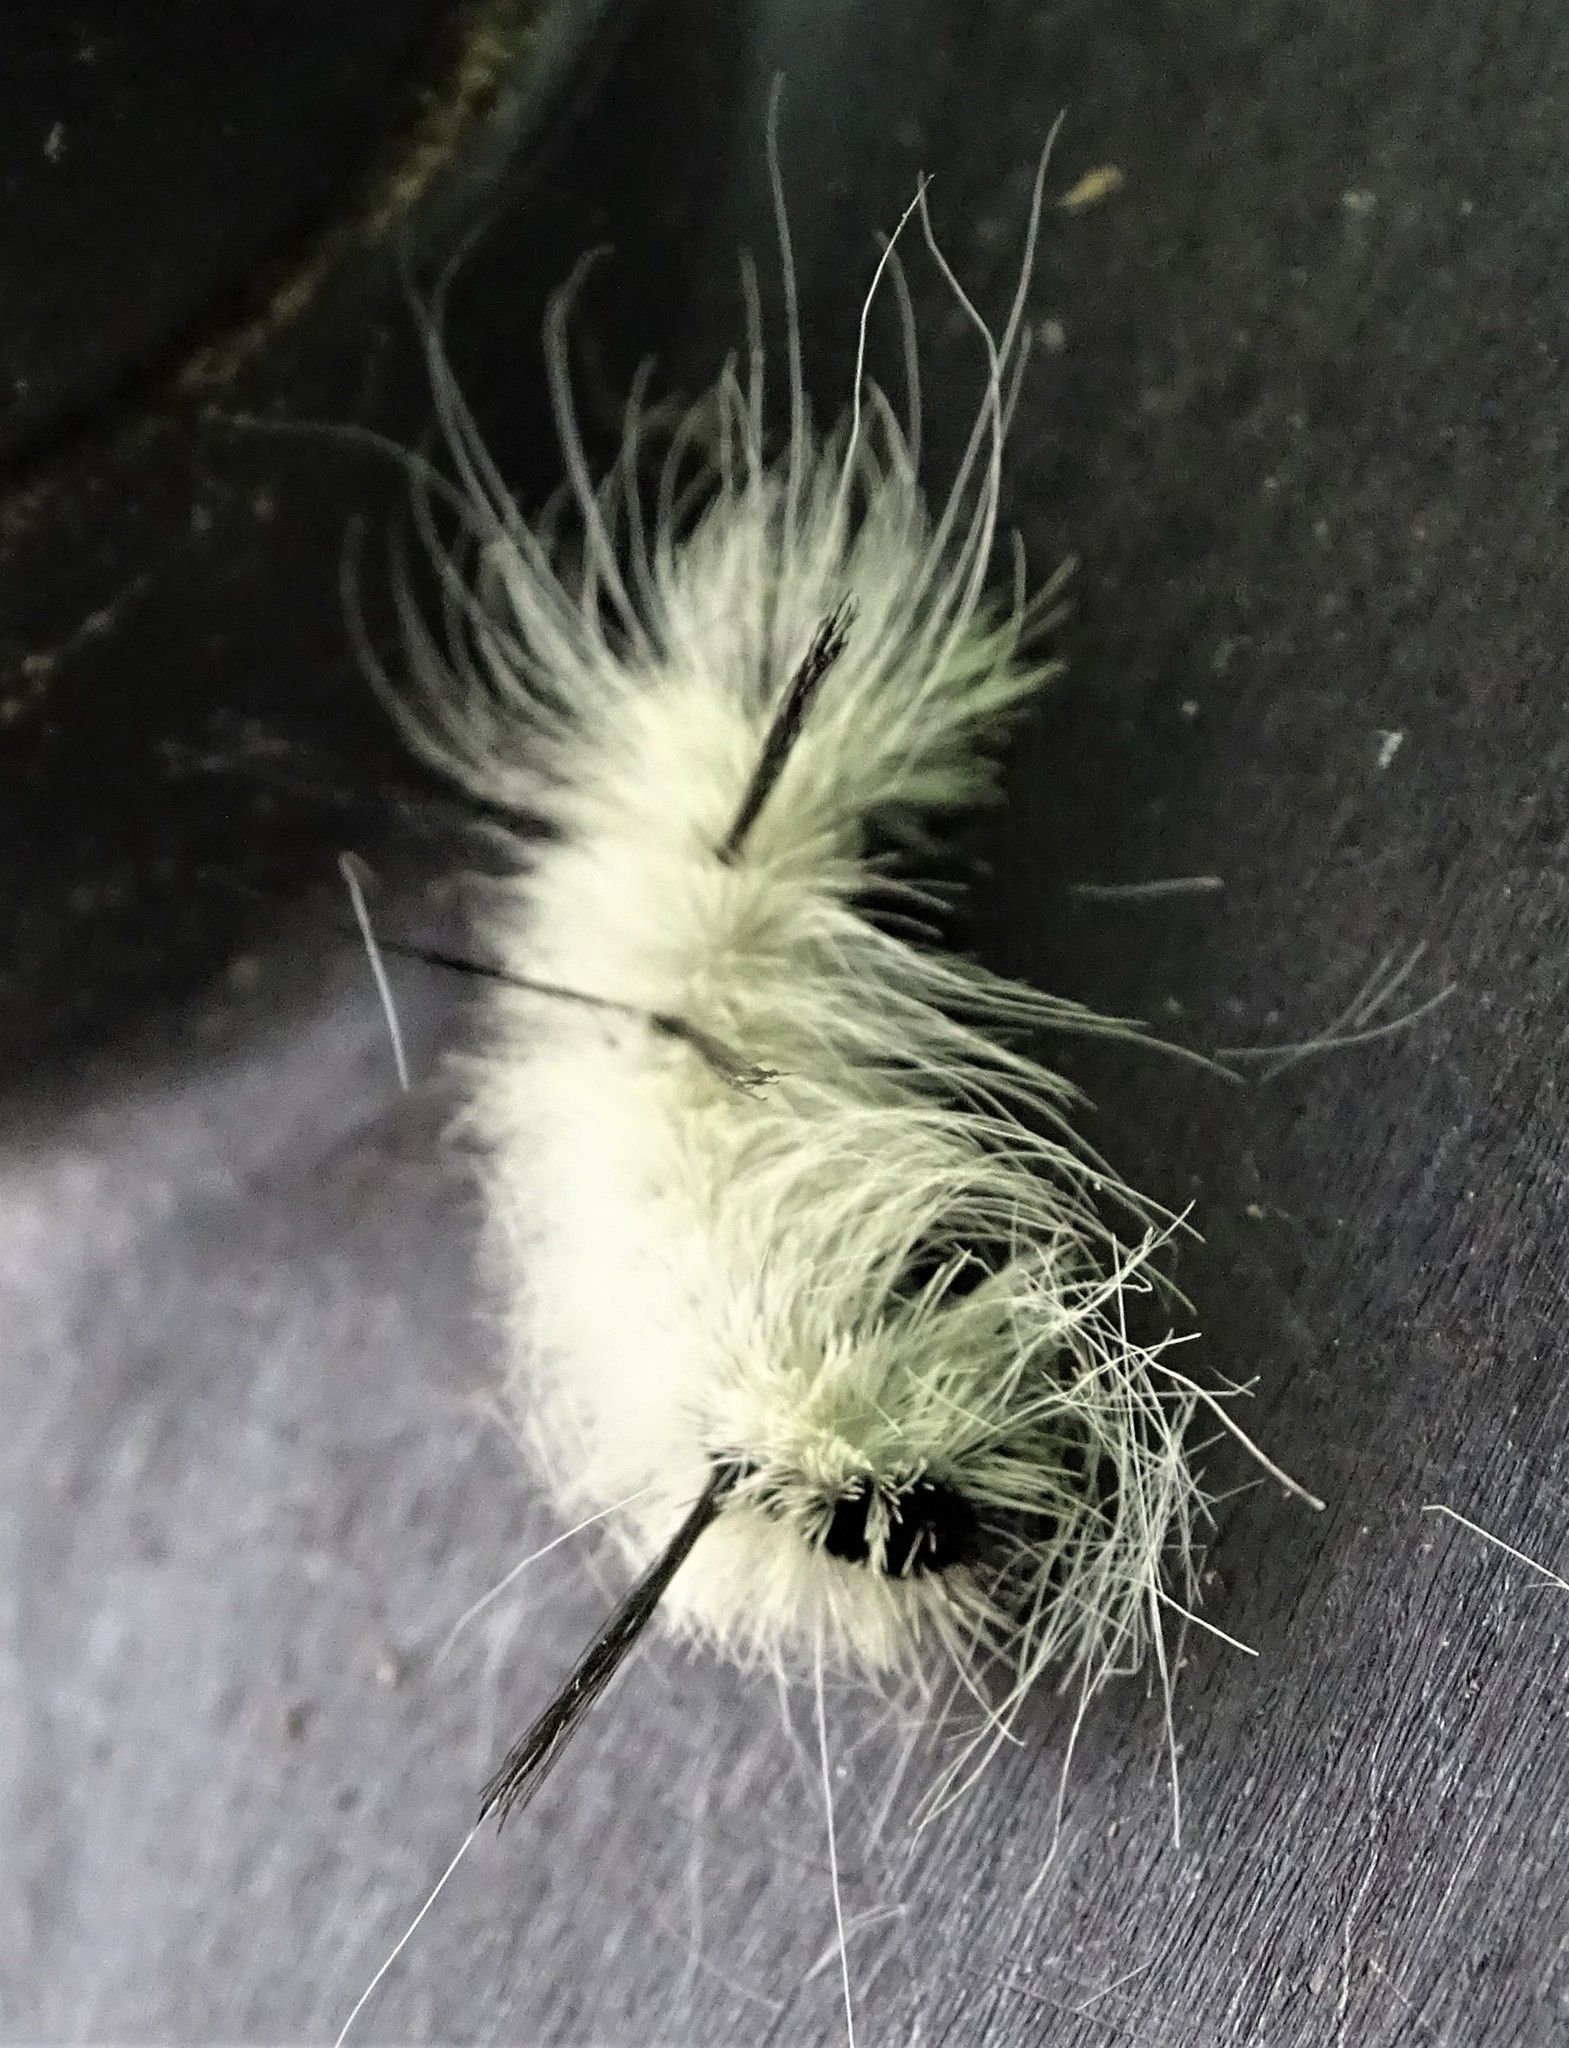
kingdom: Animalia
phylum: Arthropoda
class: Insecta
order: Lepidoptera
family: Noctuidae
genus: Acronicta
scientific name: Acronicta americana
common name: American dagger
